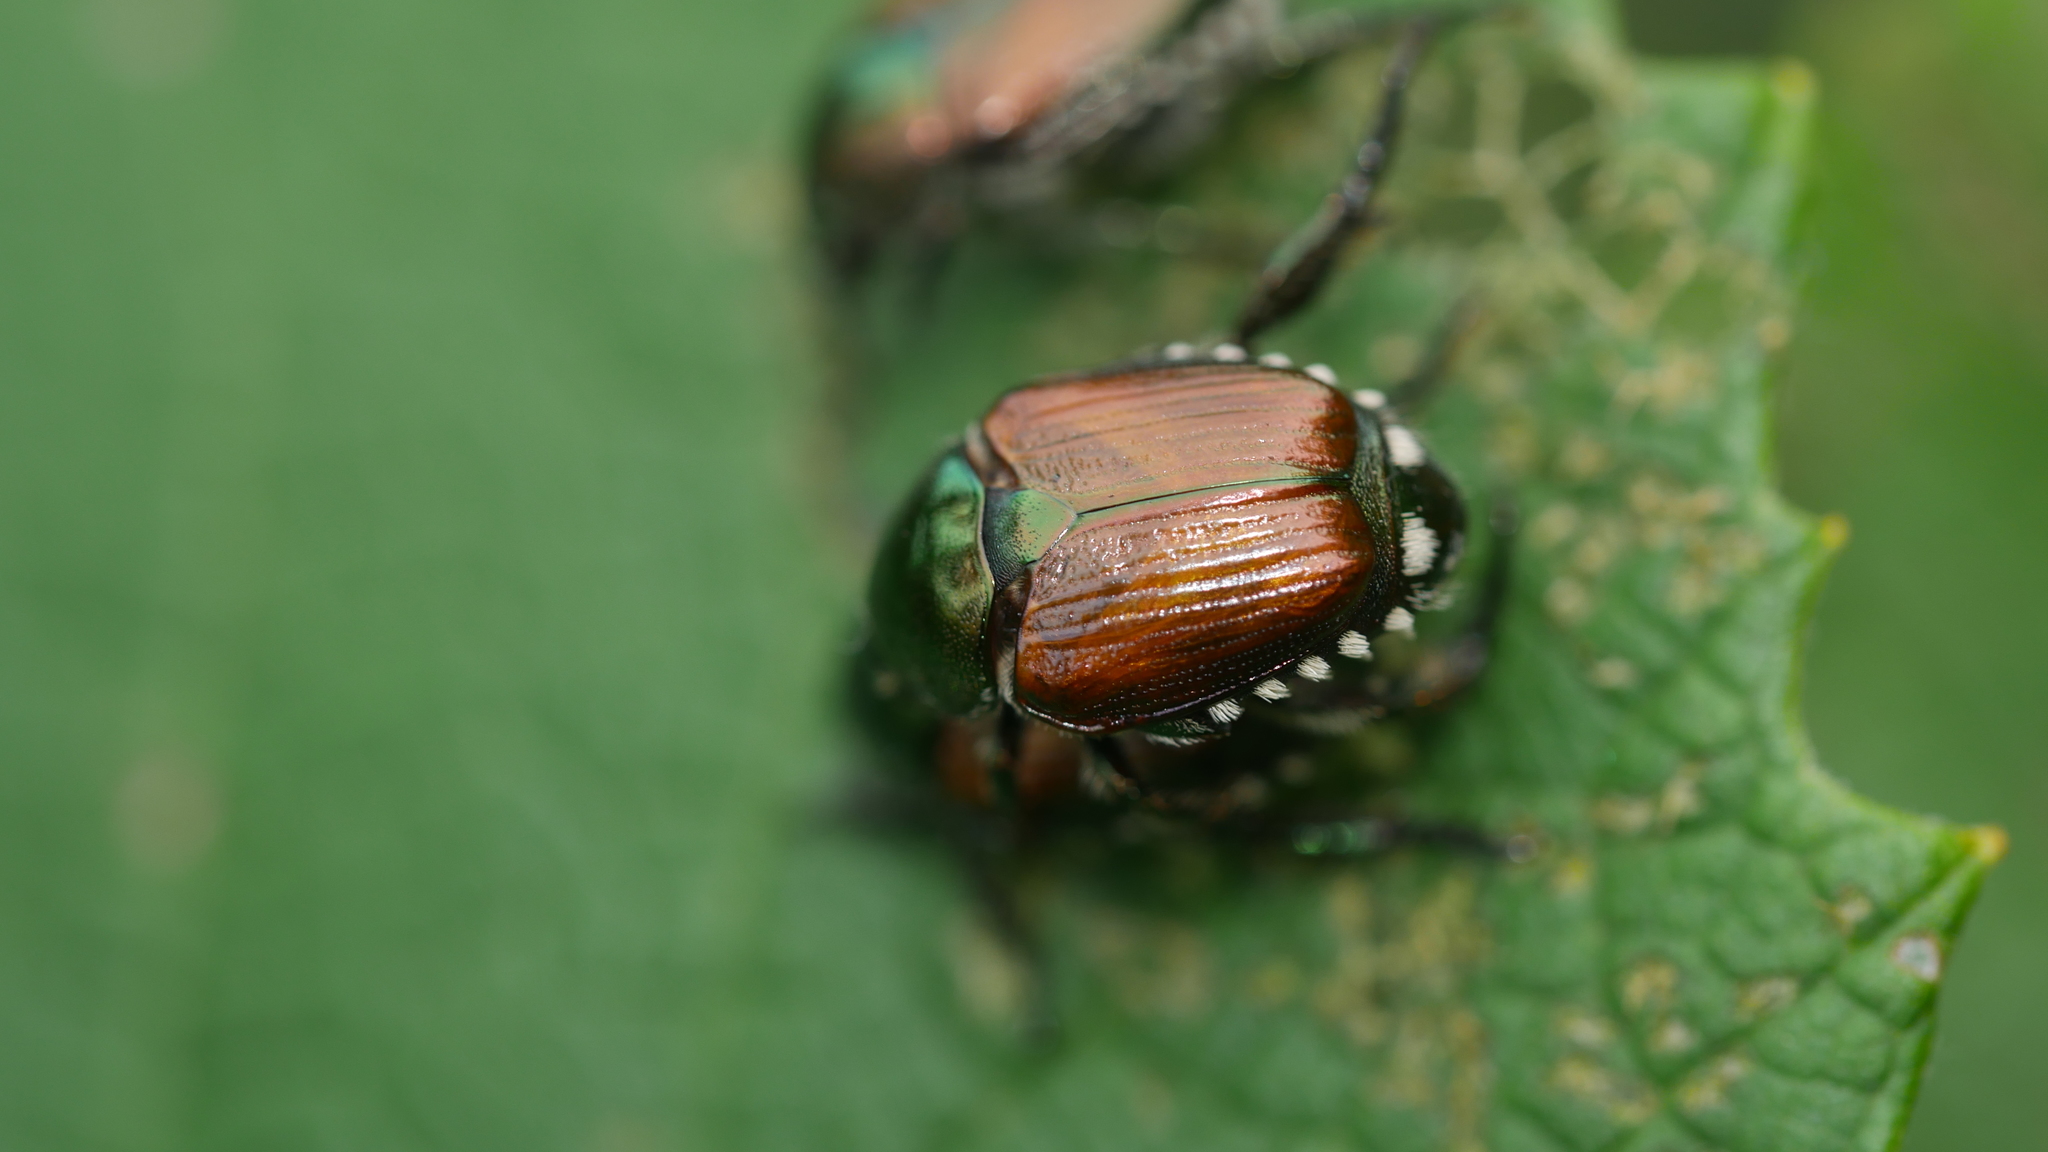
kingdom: Animalia
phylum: Arthropoda
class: Insecta
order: Coleoptera
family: Scarabaeidae
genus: Popillia
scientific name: Popillia japonica
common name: Japanese beetle
